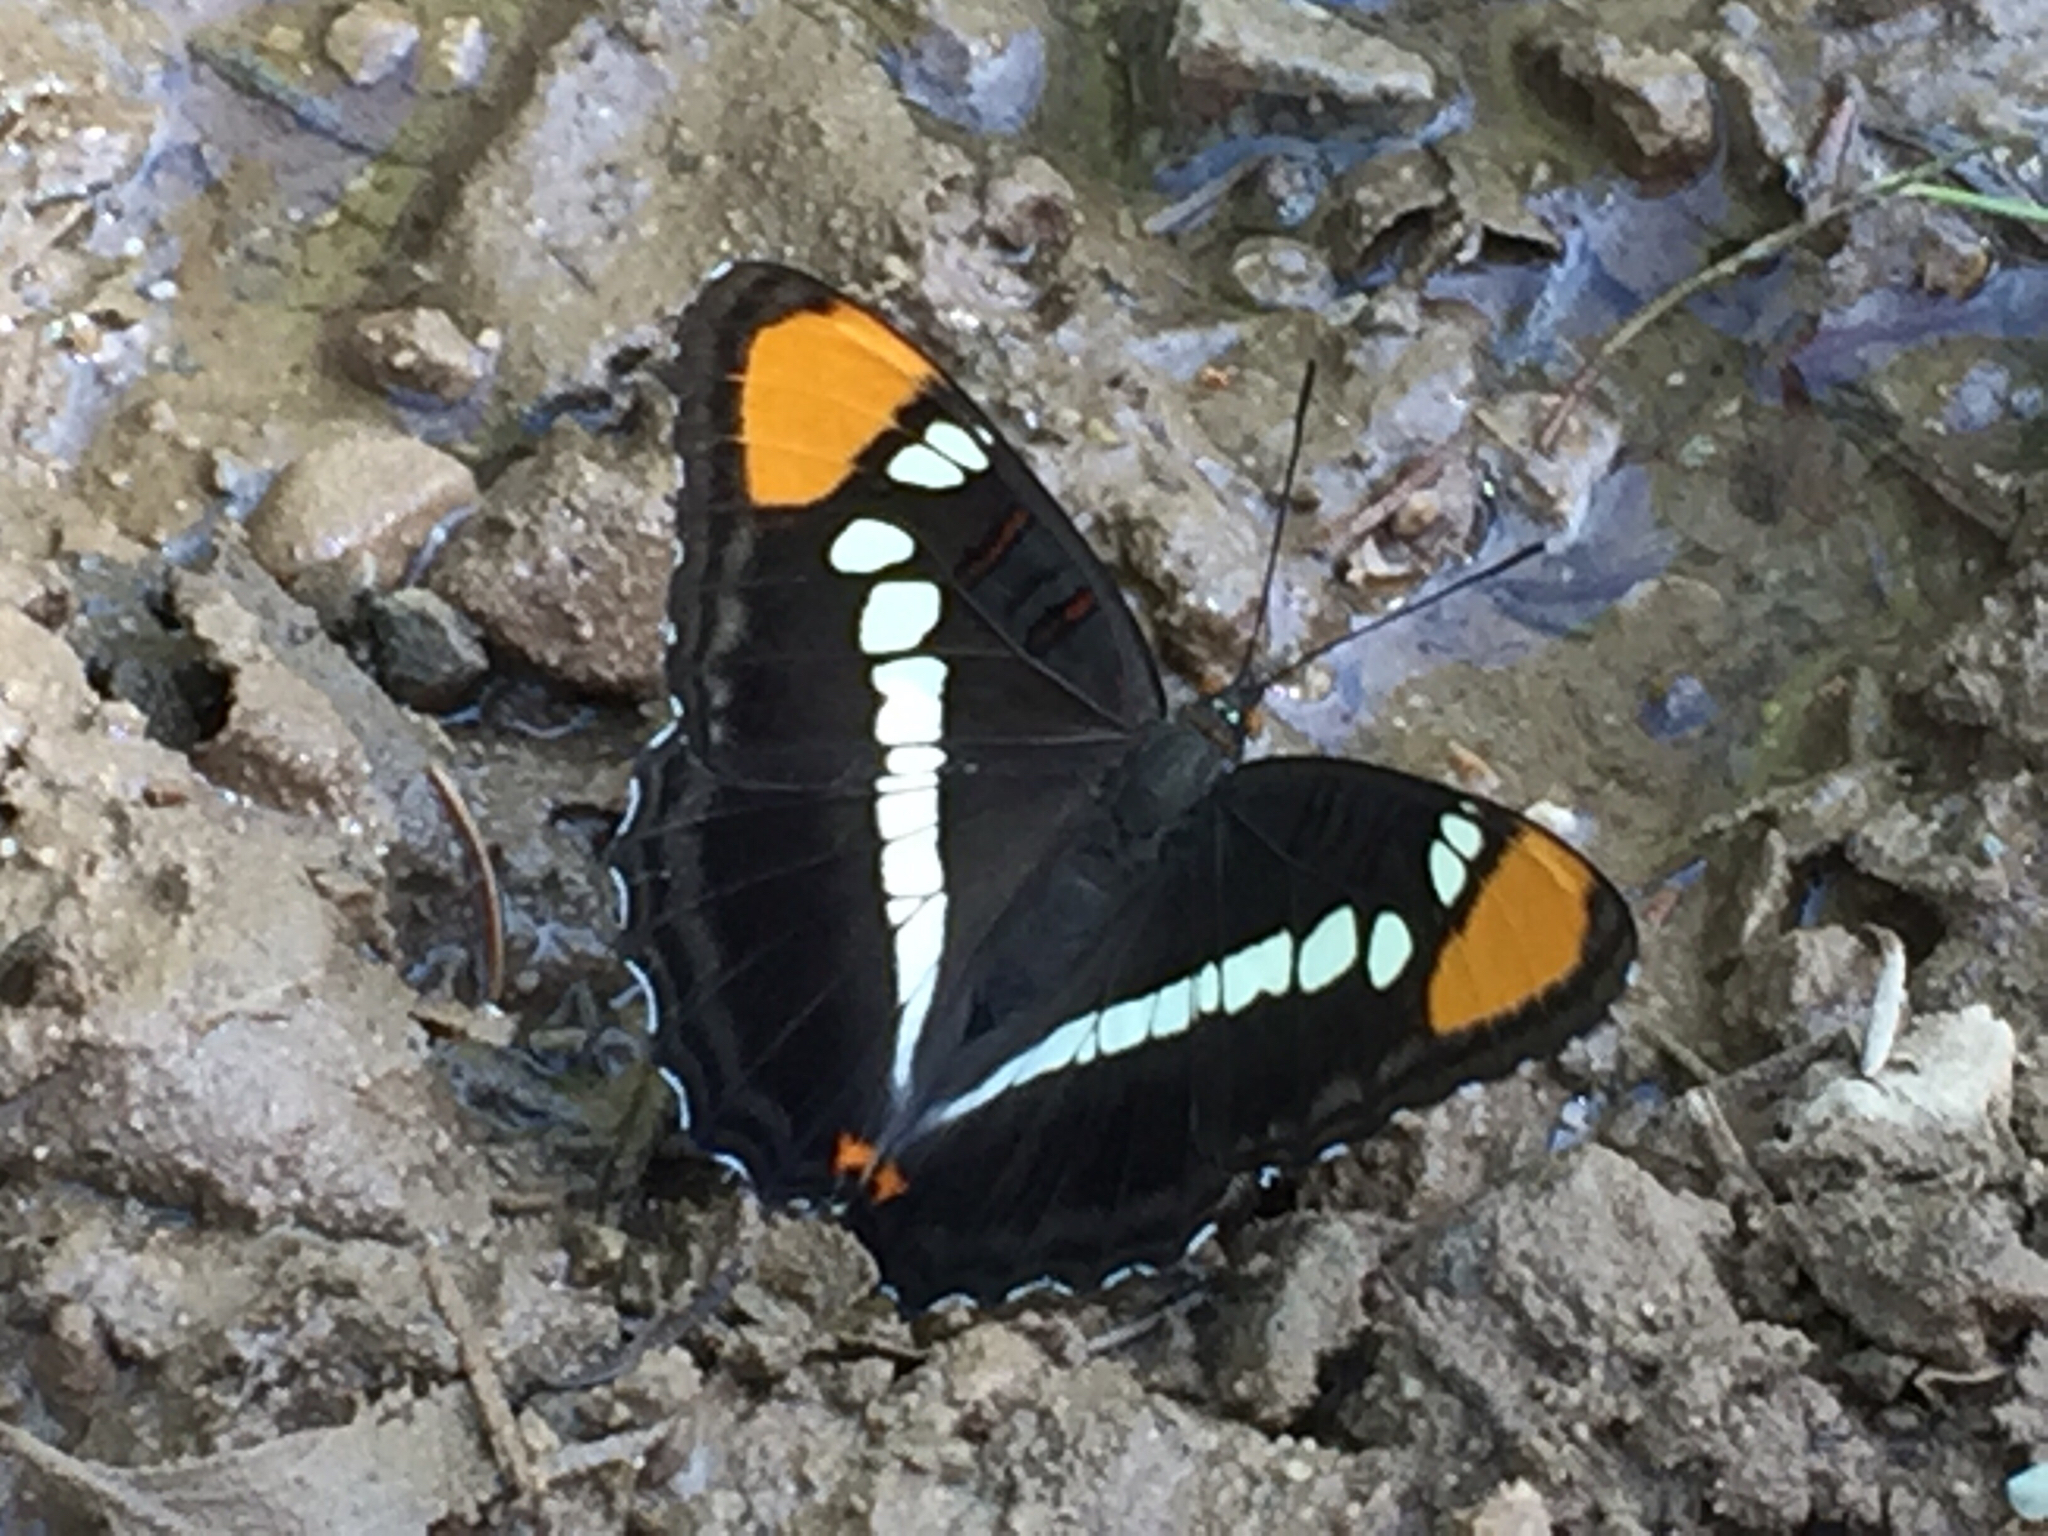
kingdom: Animalia
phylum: Arthropoda
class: Insecta
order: Lepidoptera
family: Nymphalidae
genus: Limenitis
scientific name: Limenitis bredowii
